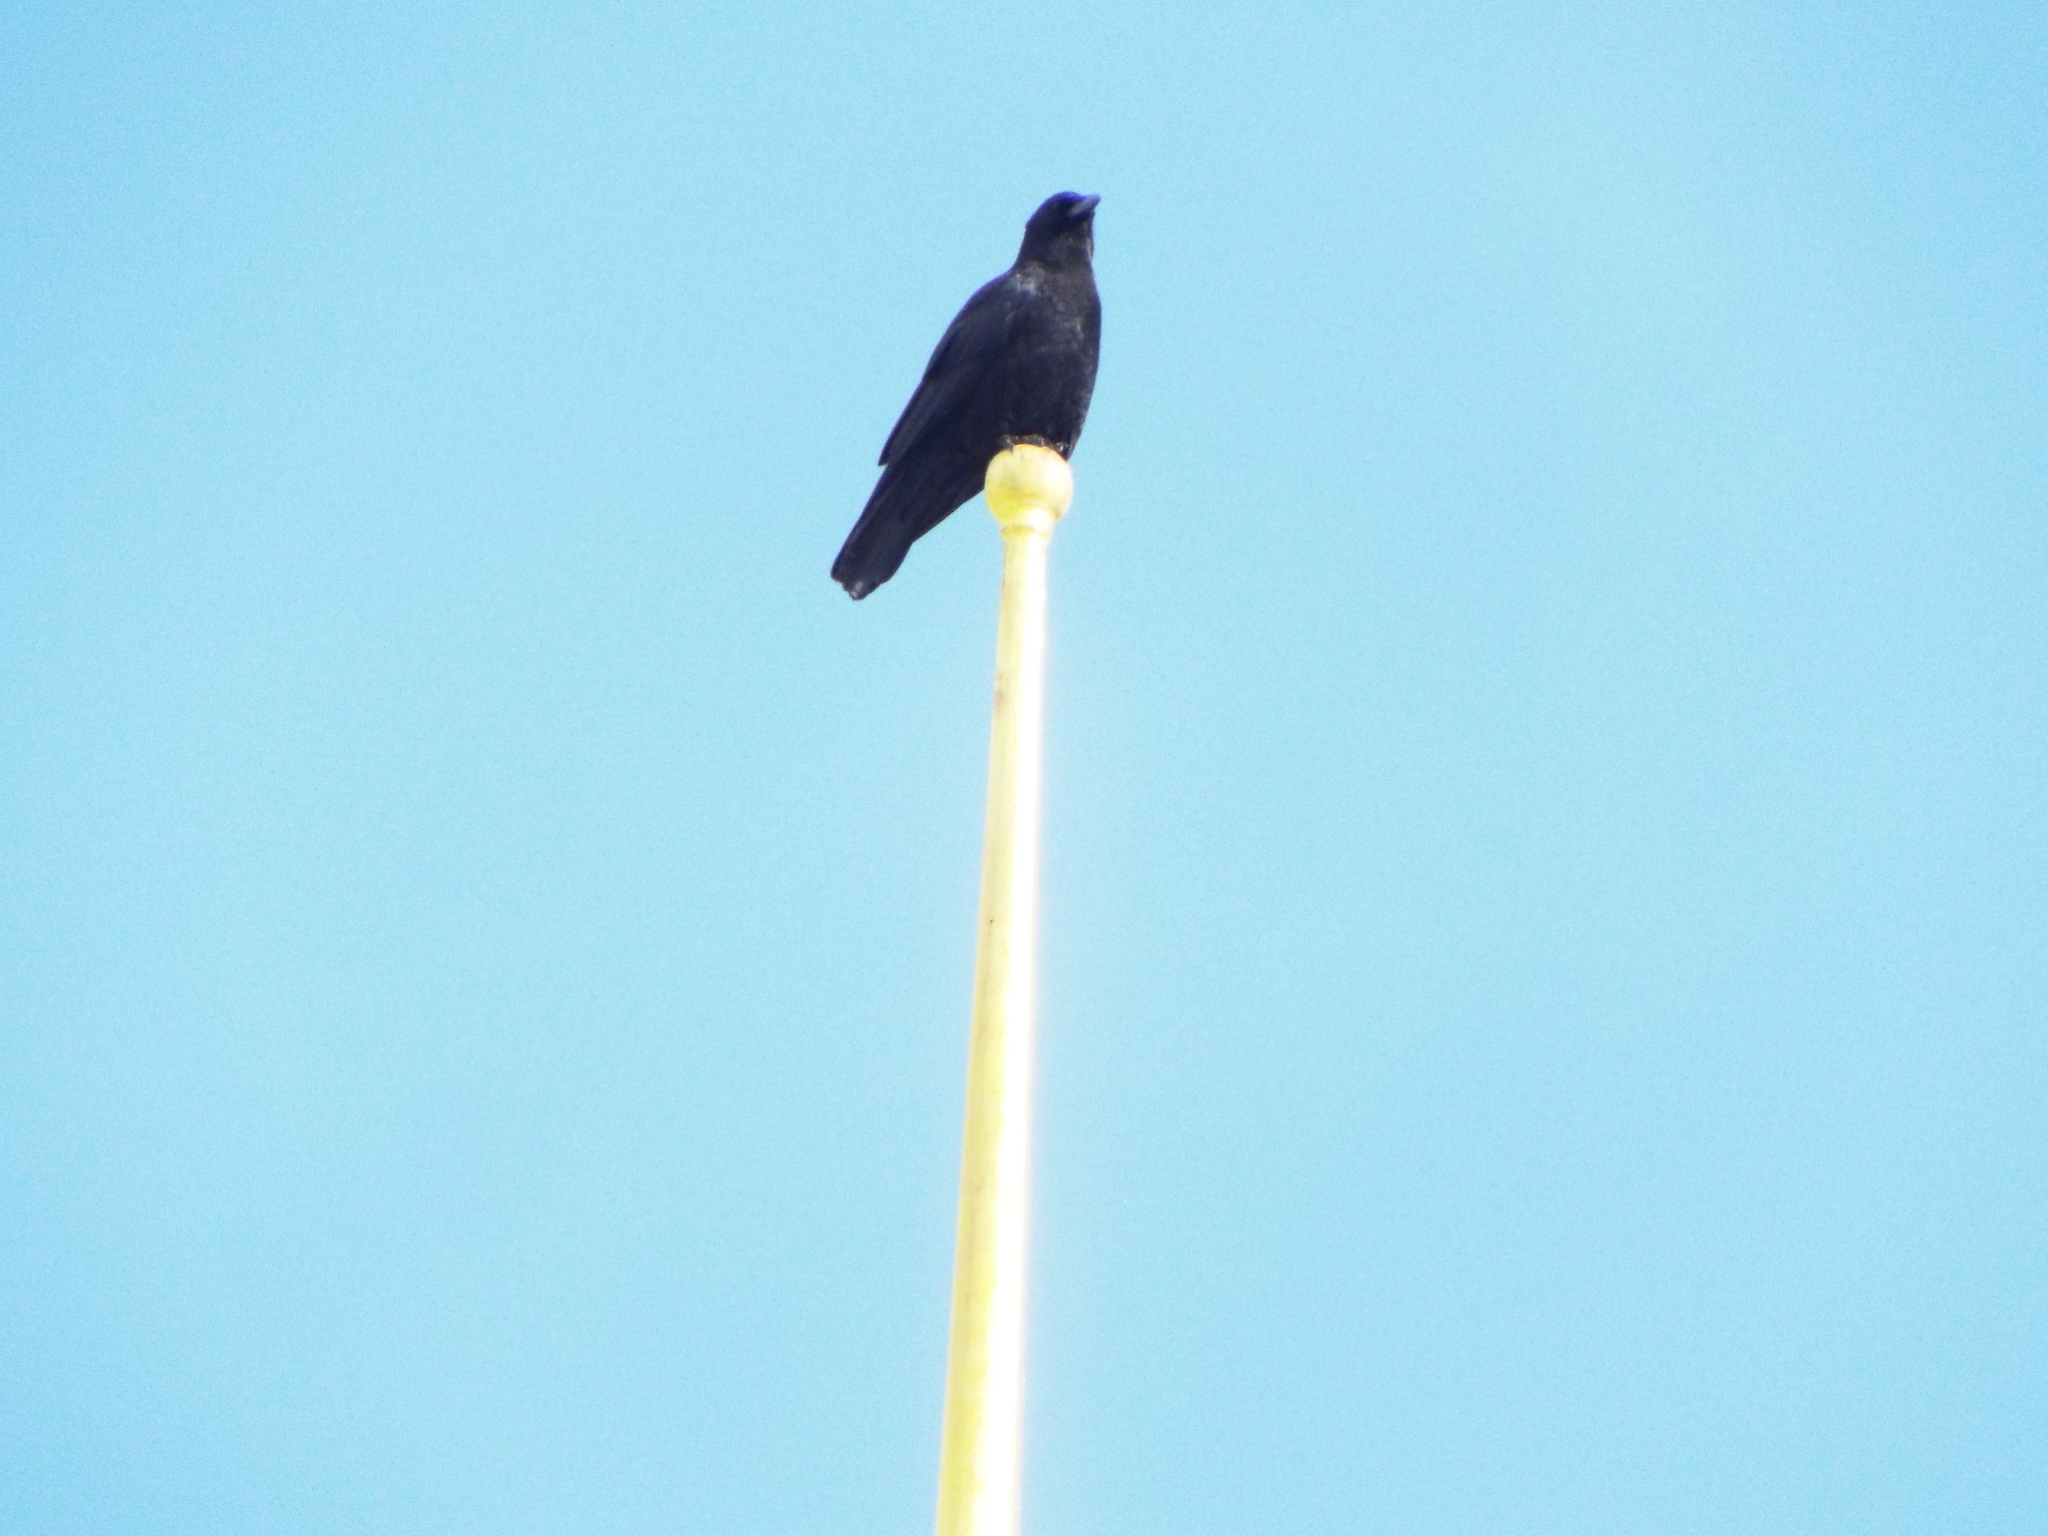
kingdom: Animalia
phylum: Chordata
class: Aves
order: Passeriformes
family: Corvidae
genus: Corvus
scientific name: Corvus brachyrhynchos
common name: American crow
